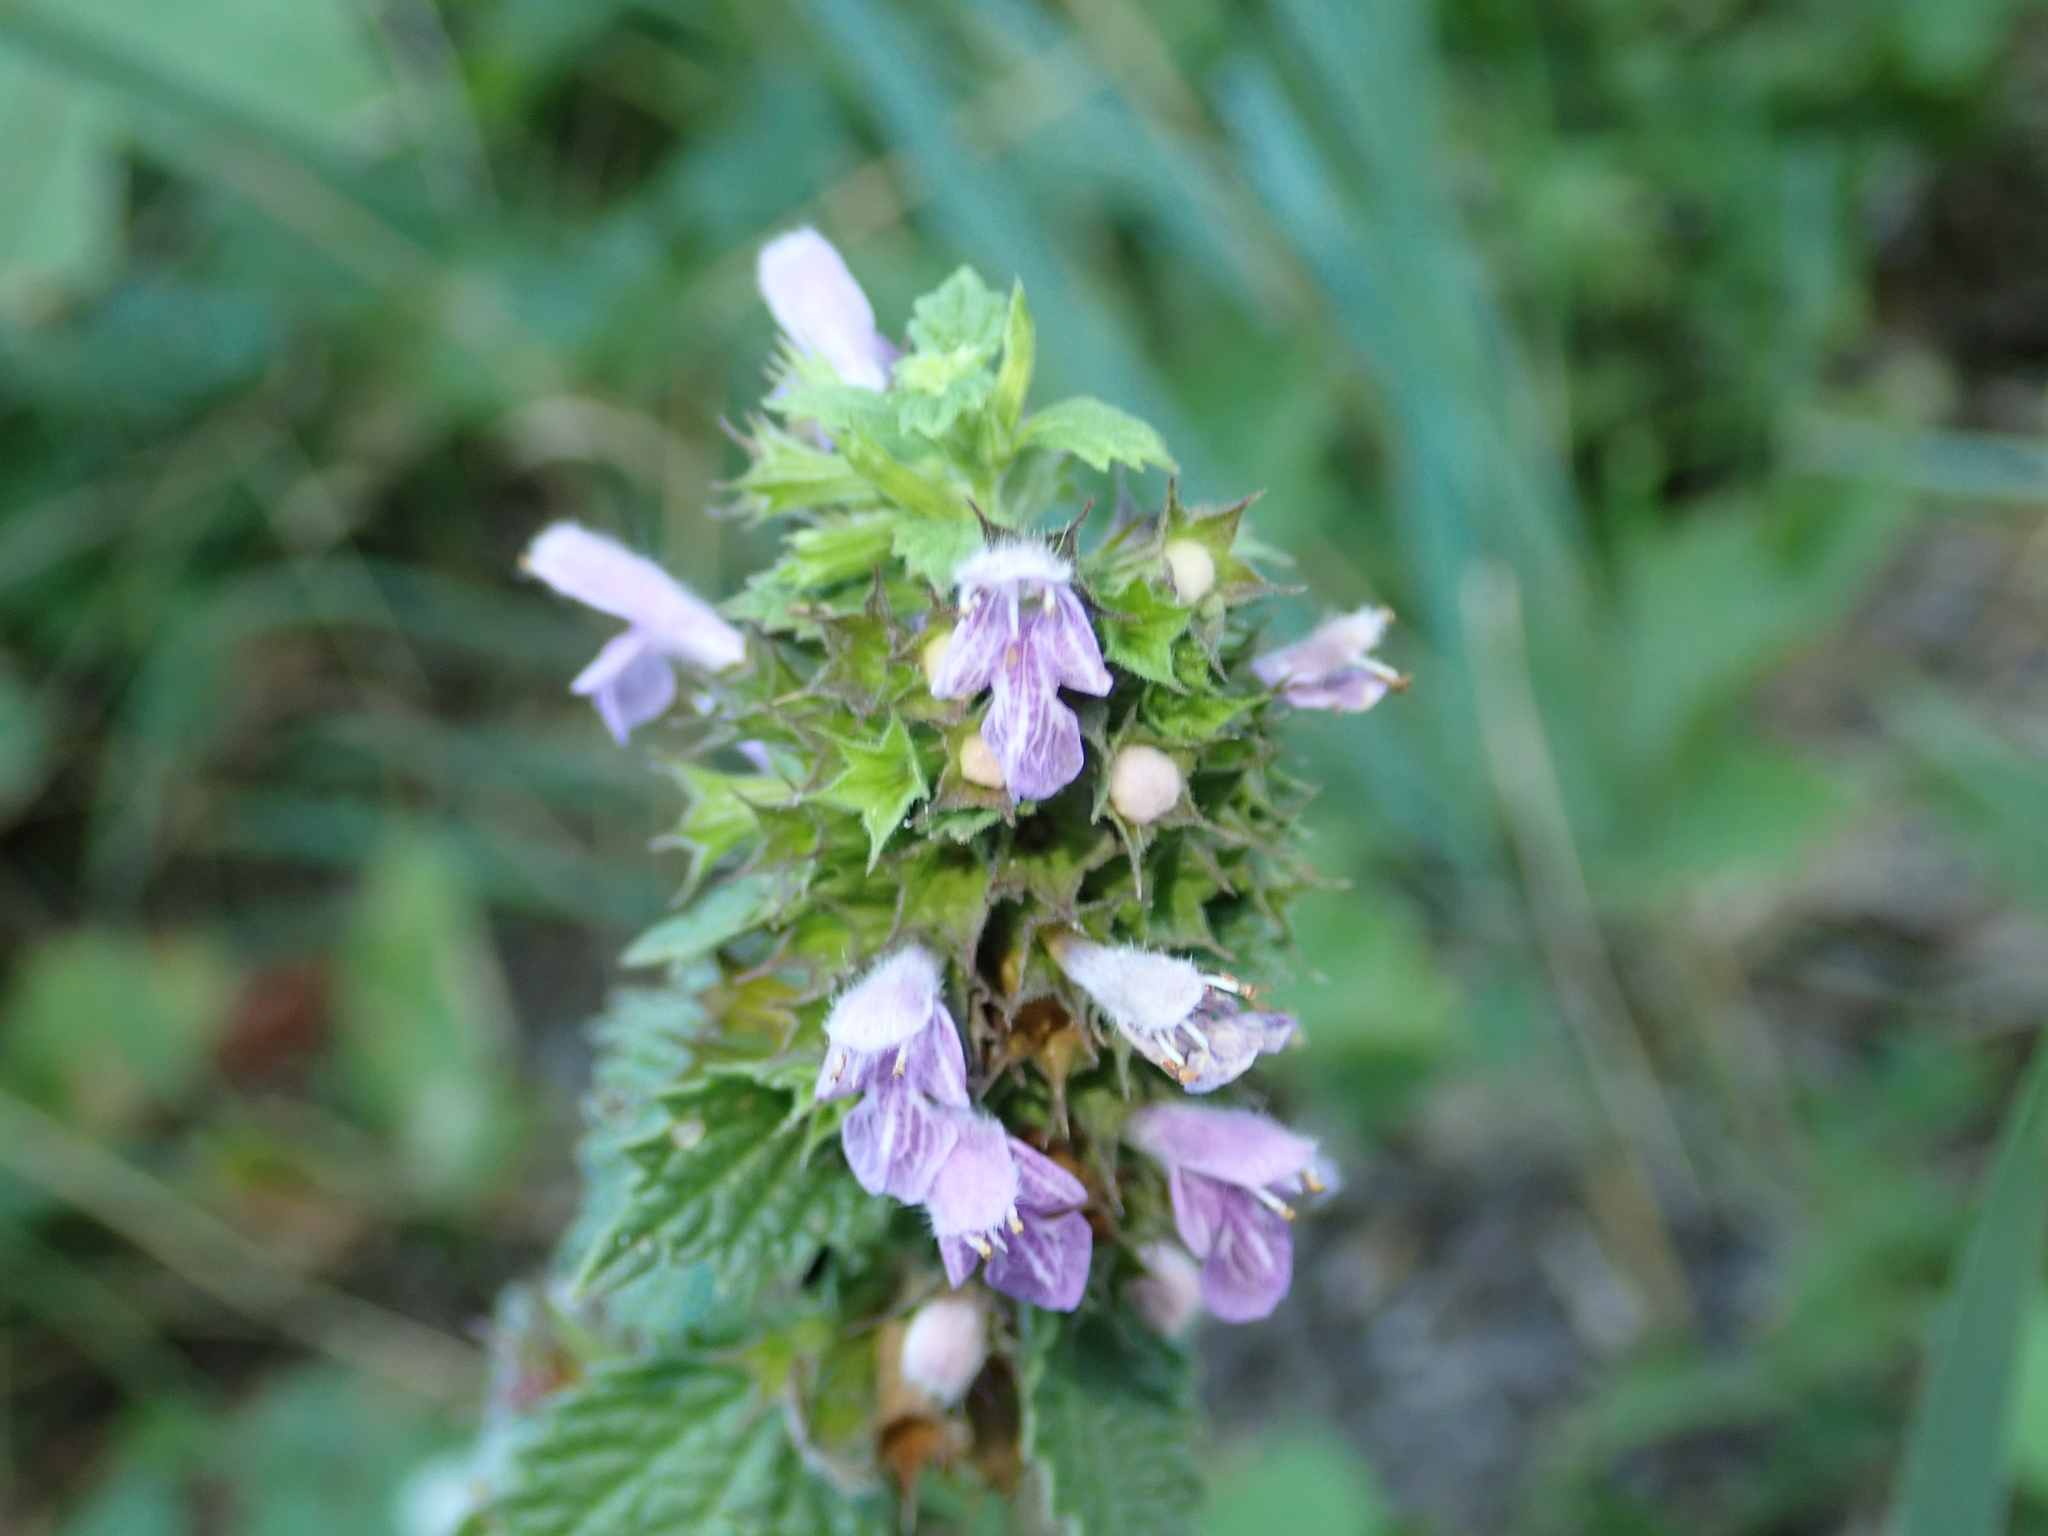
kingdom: Plantae
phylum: Tracheophyta
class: Magnoliopsida
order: Lamiales
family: Lamiaceae
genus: Ballota
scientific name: Ballota nigra
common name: Black horehound
